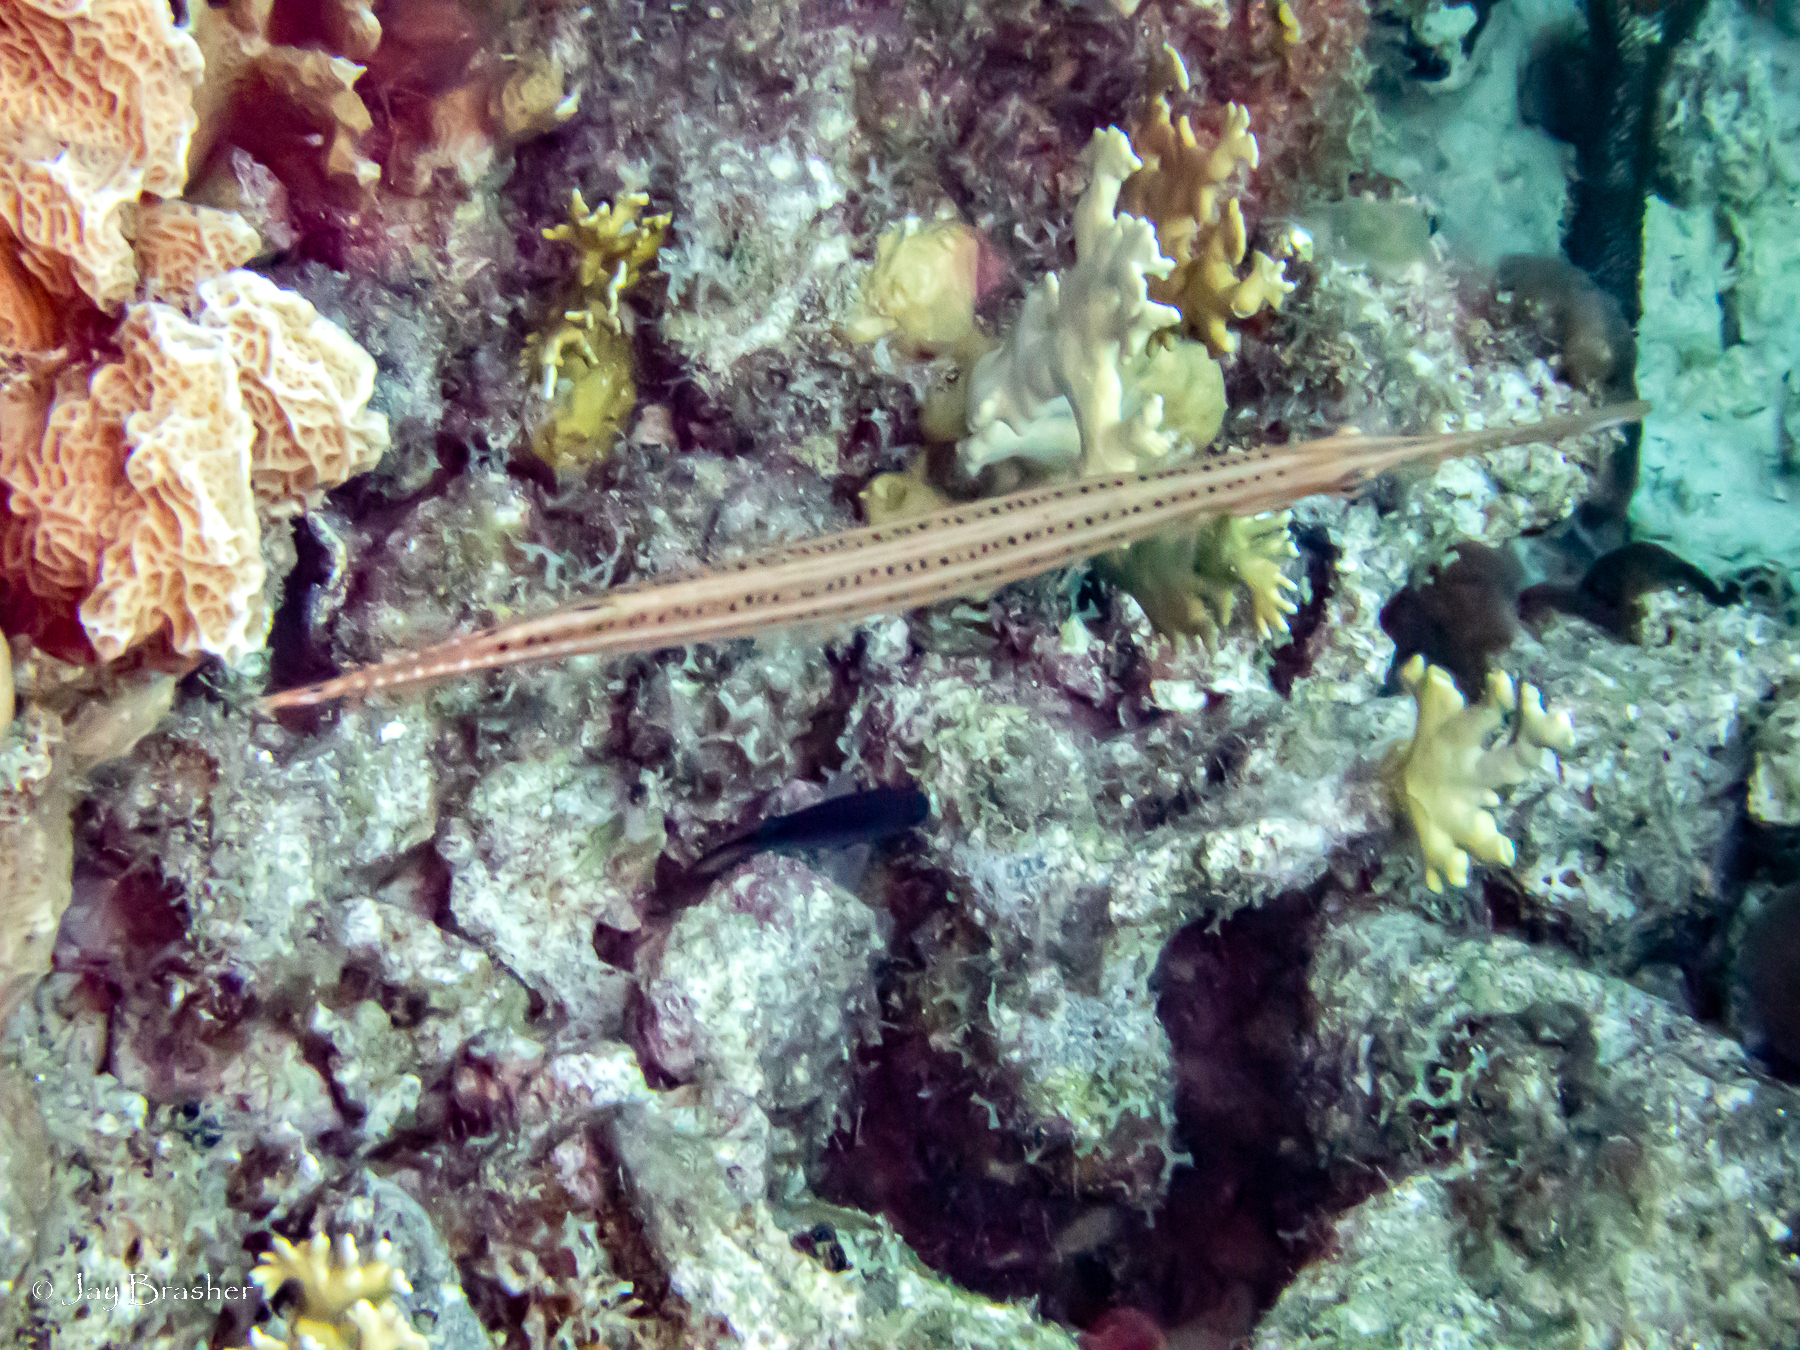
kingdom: Animalia
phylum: Chordata
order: Syngnathiformes
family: Aulostomidae
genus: Aulostomus
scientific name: Aulostomus maculatus
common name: West atlantic trumpetfish
